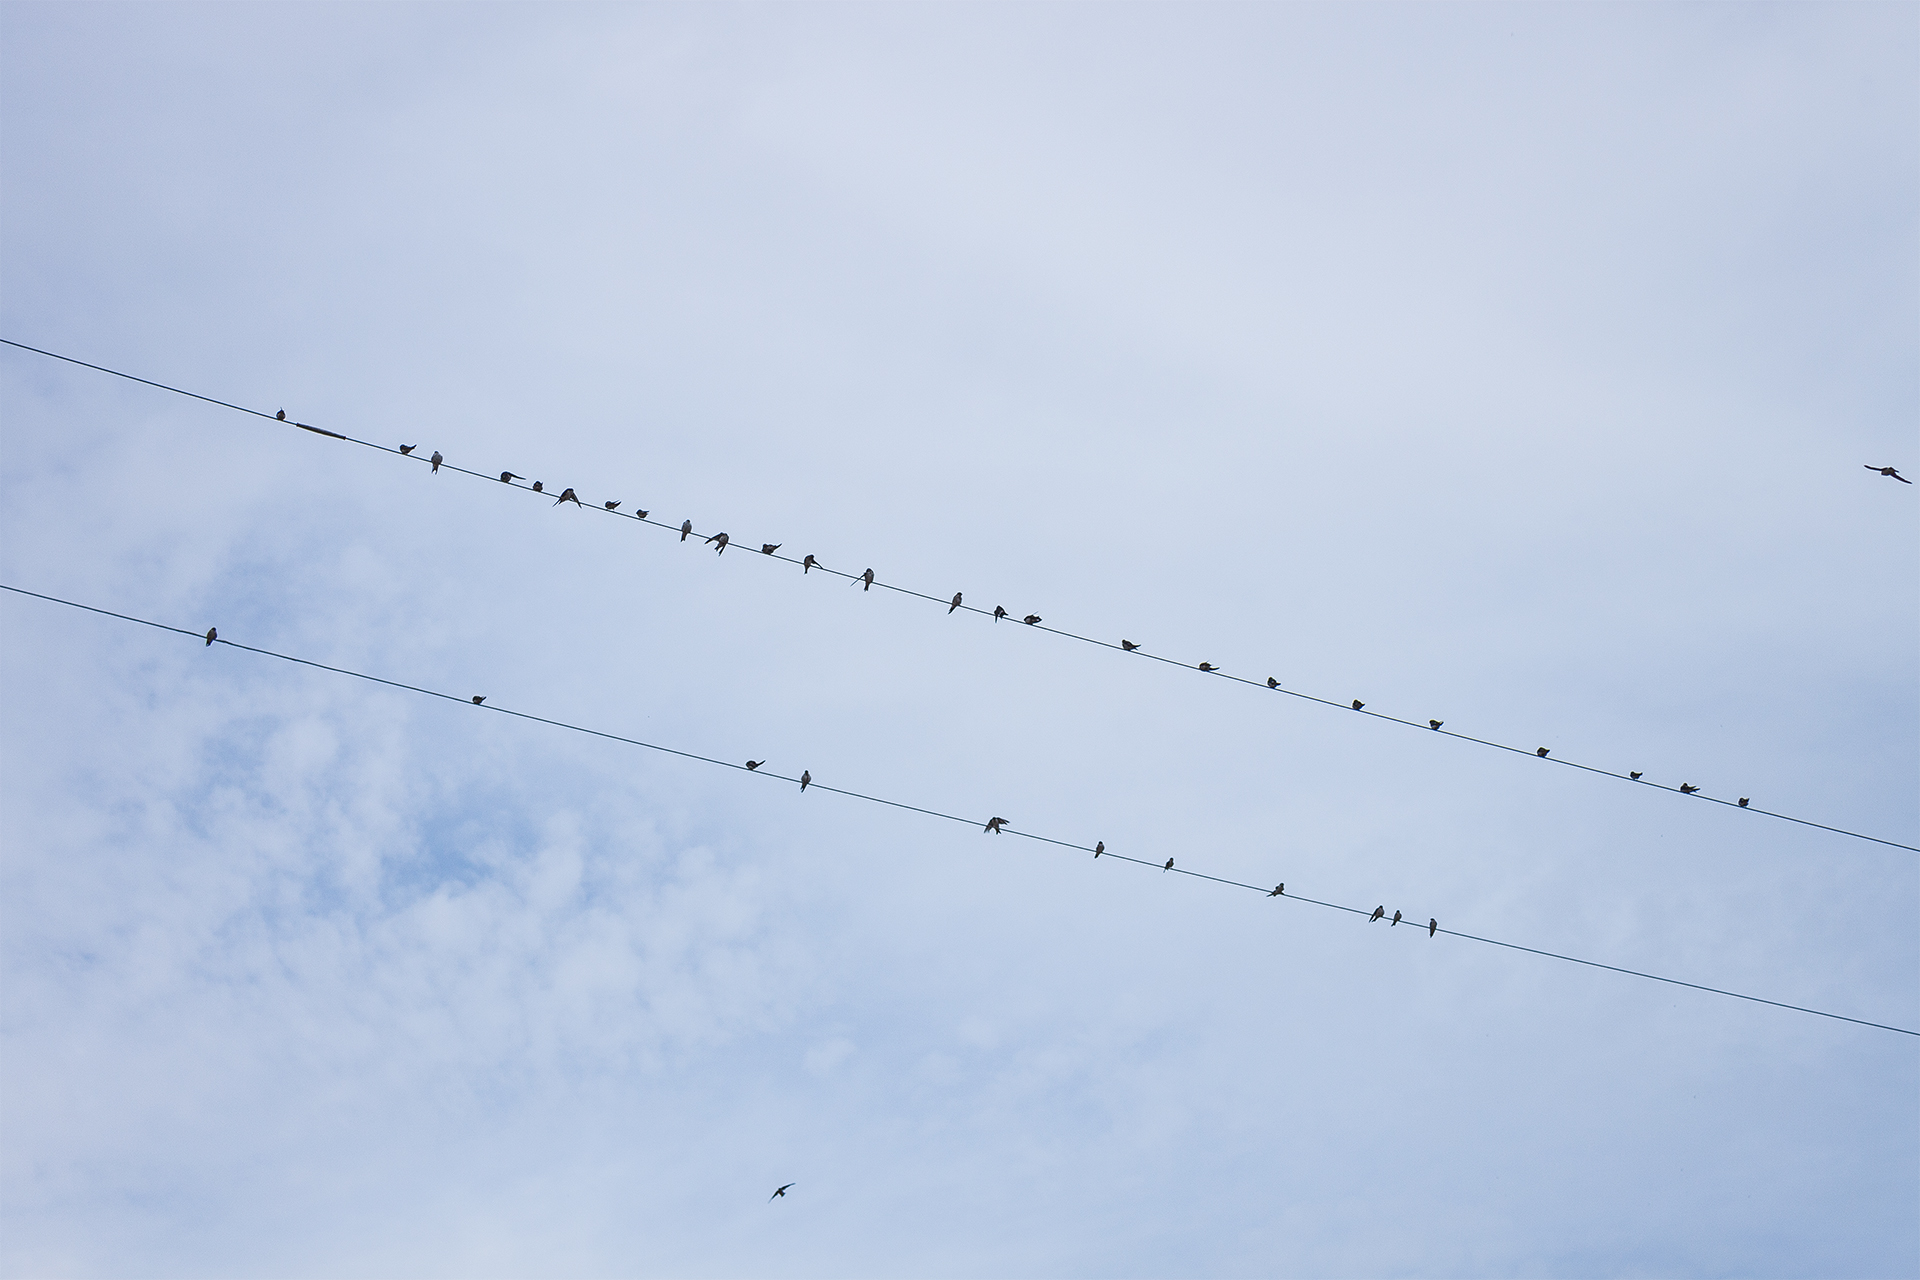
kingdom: Animalia
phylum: Chordata
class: Aves
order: Passeriformes
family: Hirundinidae
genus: Tachycineta
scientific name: Tachycineta thalassina
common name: Violet-green swallow
